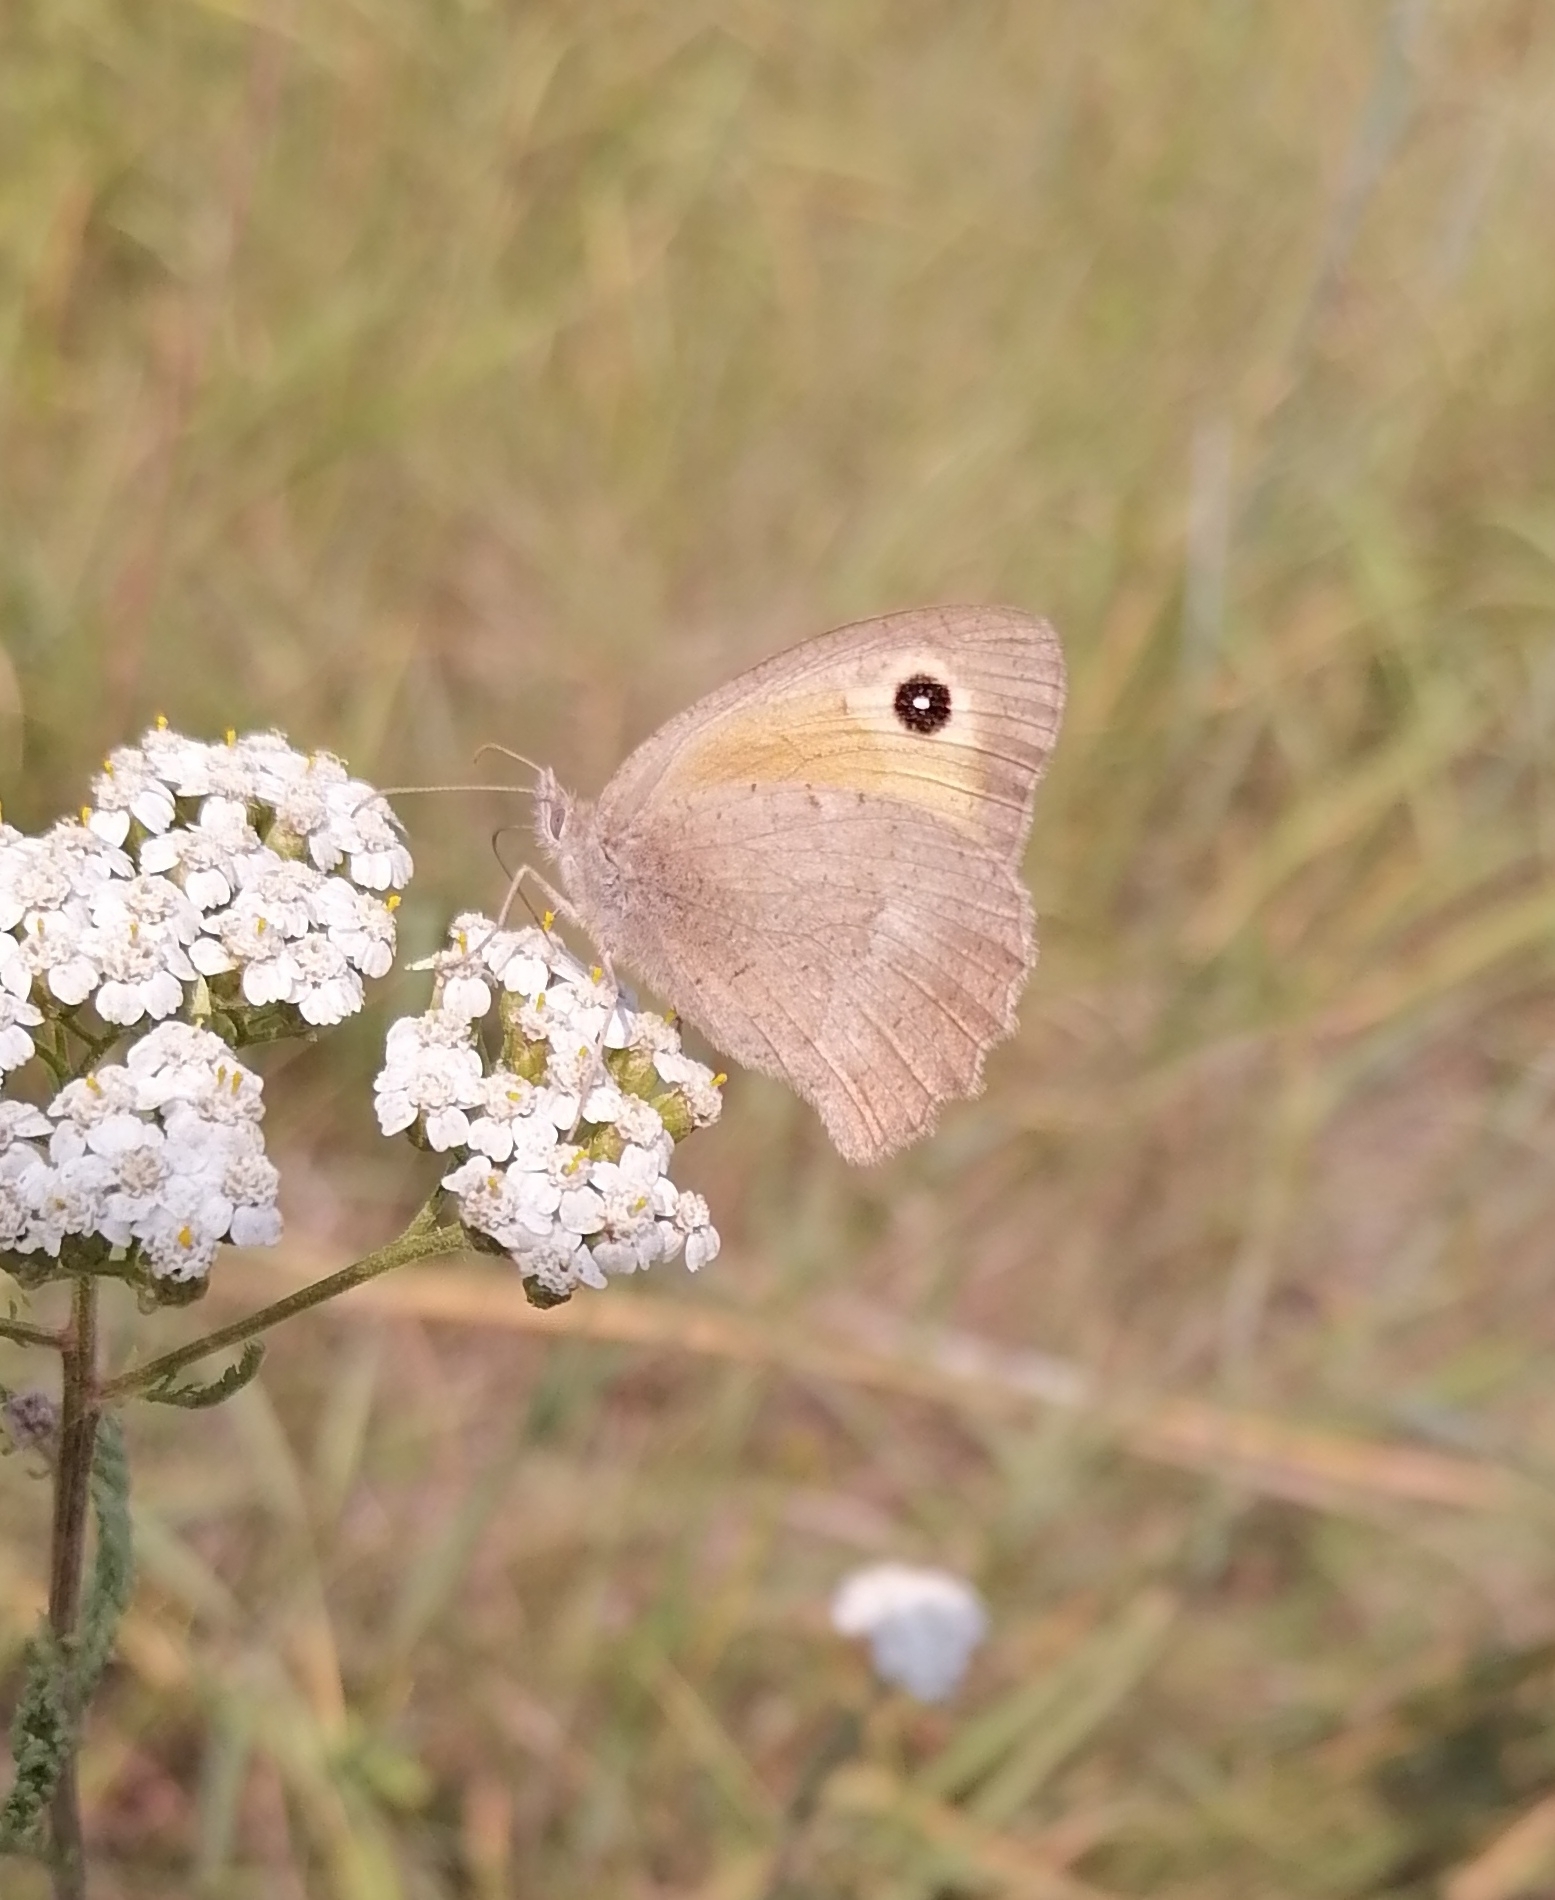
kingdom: Animalia
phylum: Arthropoda
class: Insecta
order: Lepidoptera
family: Nymphalidae
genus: Hyponephele
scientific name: Hyponephele lycaon
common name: Dusky meadow brown
